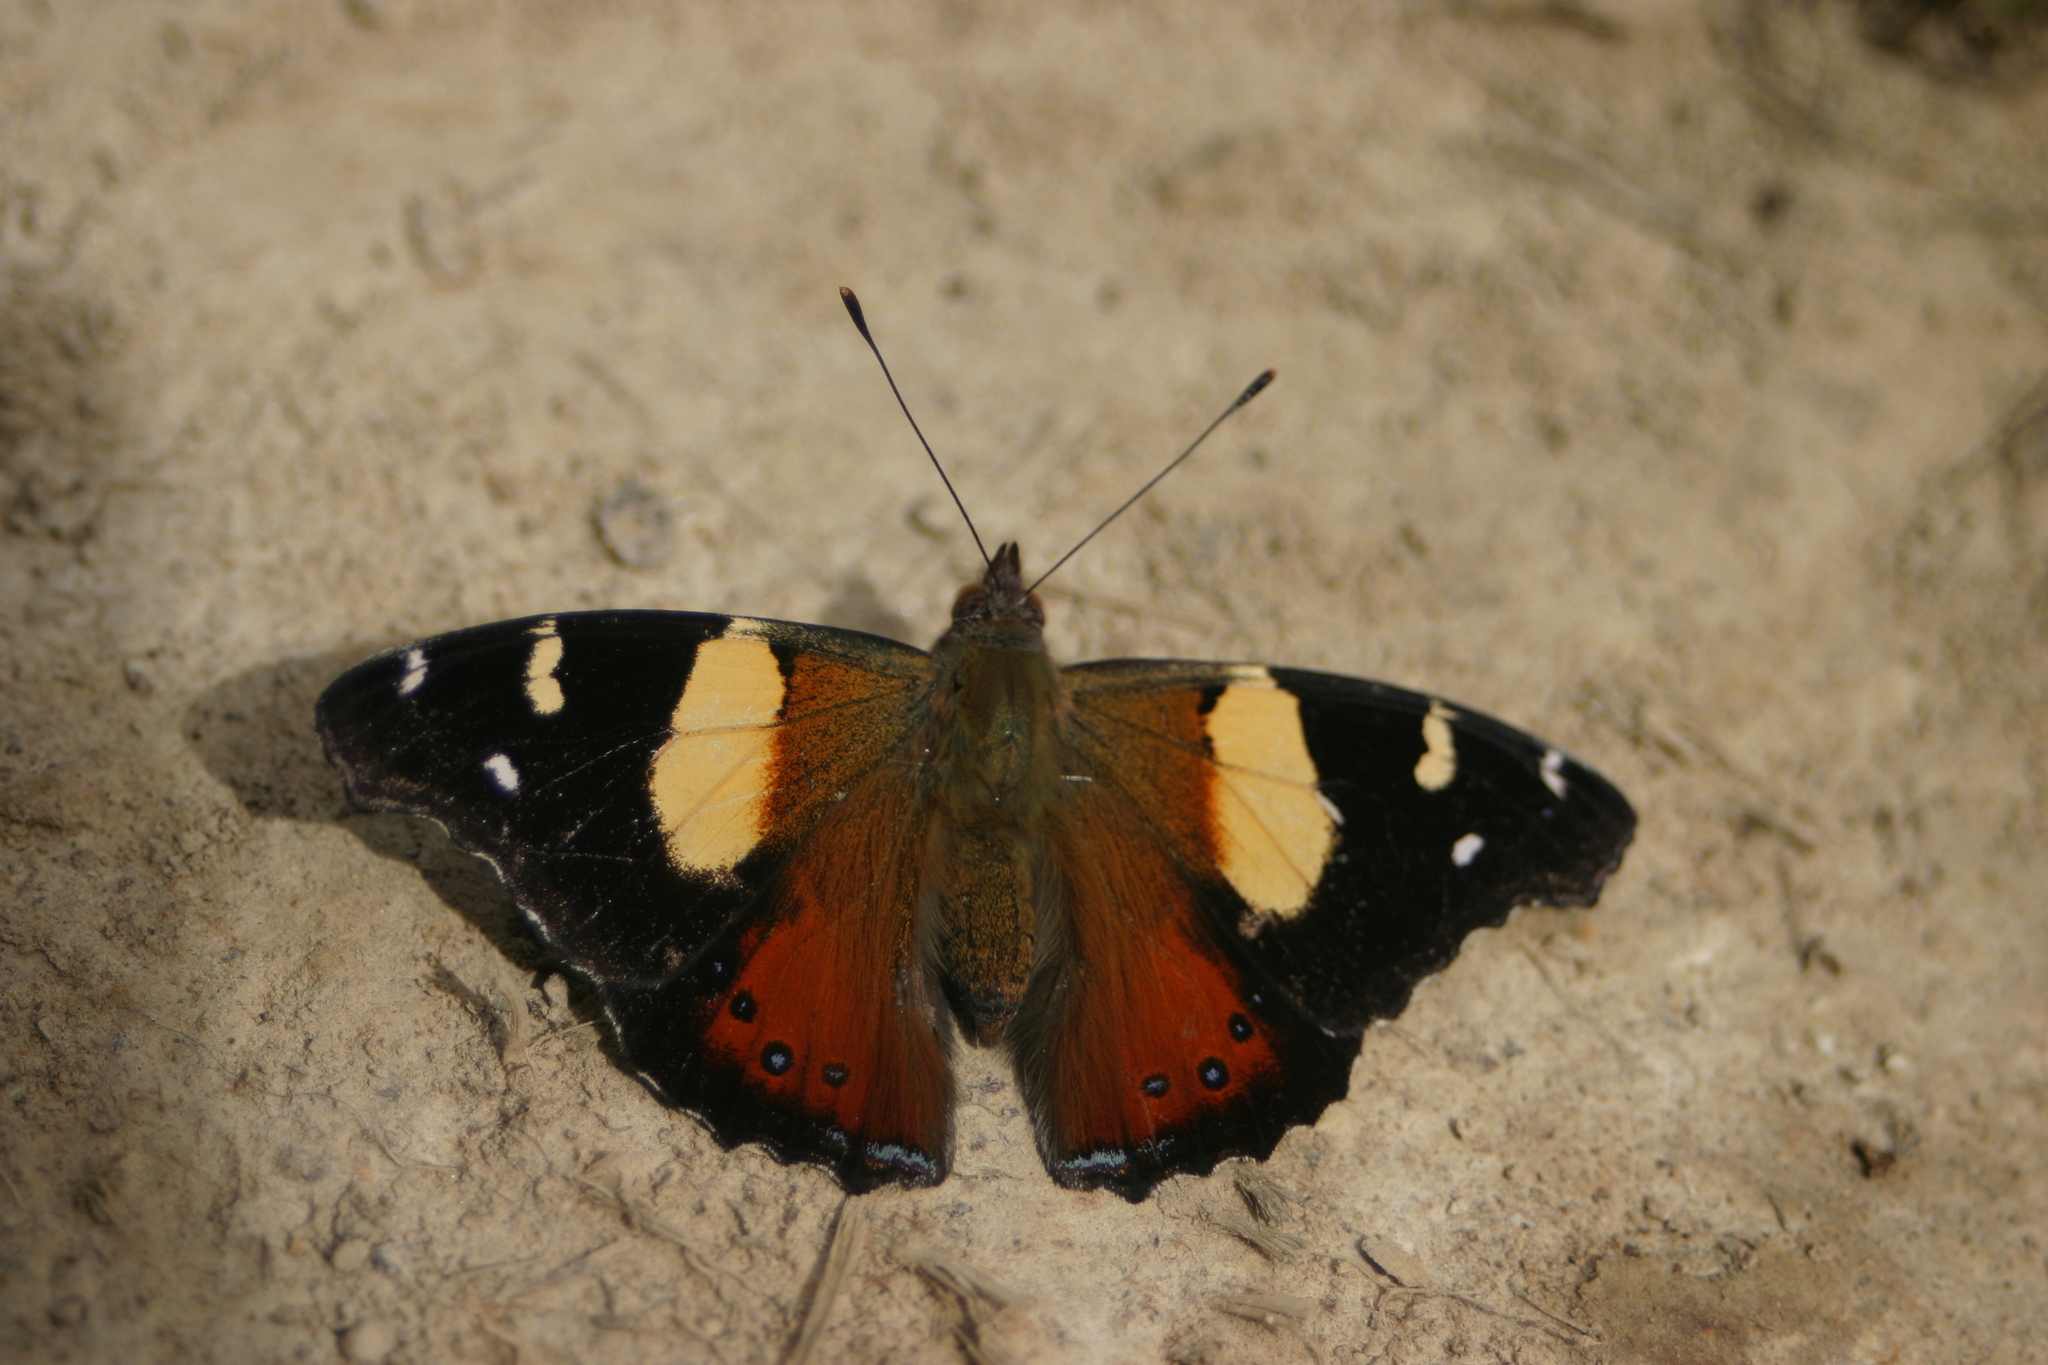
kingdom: Animalia
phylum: Arthropoda
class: Insecta
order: Lepidoptera
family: Nymphalidae
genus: Vanessa
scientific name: Vanessa itea
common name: Yellow admiral
